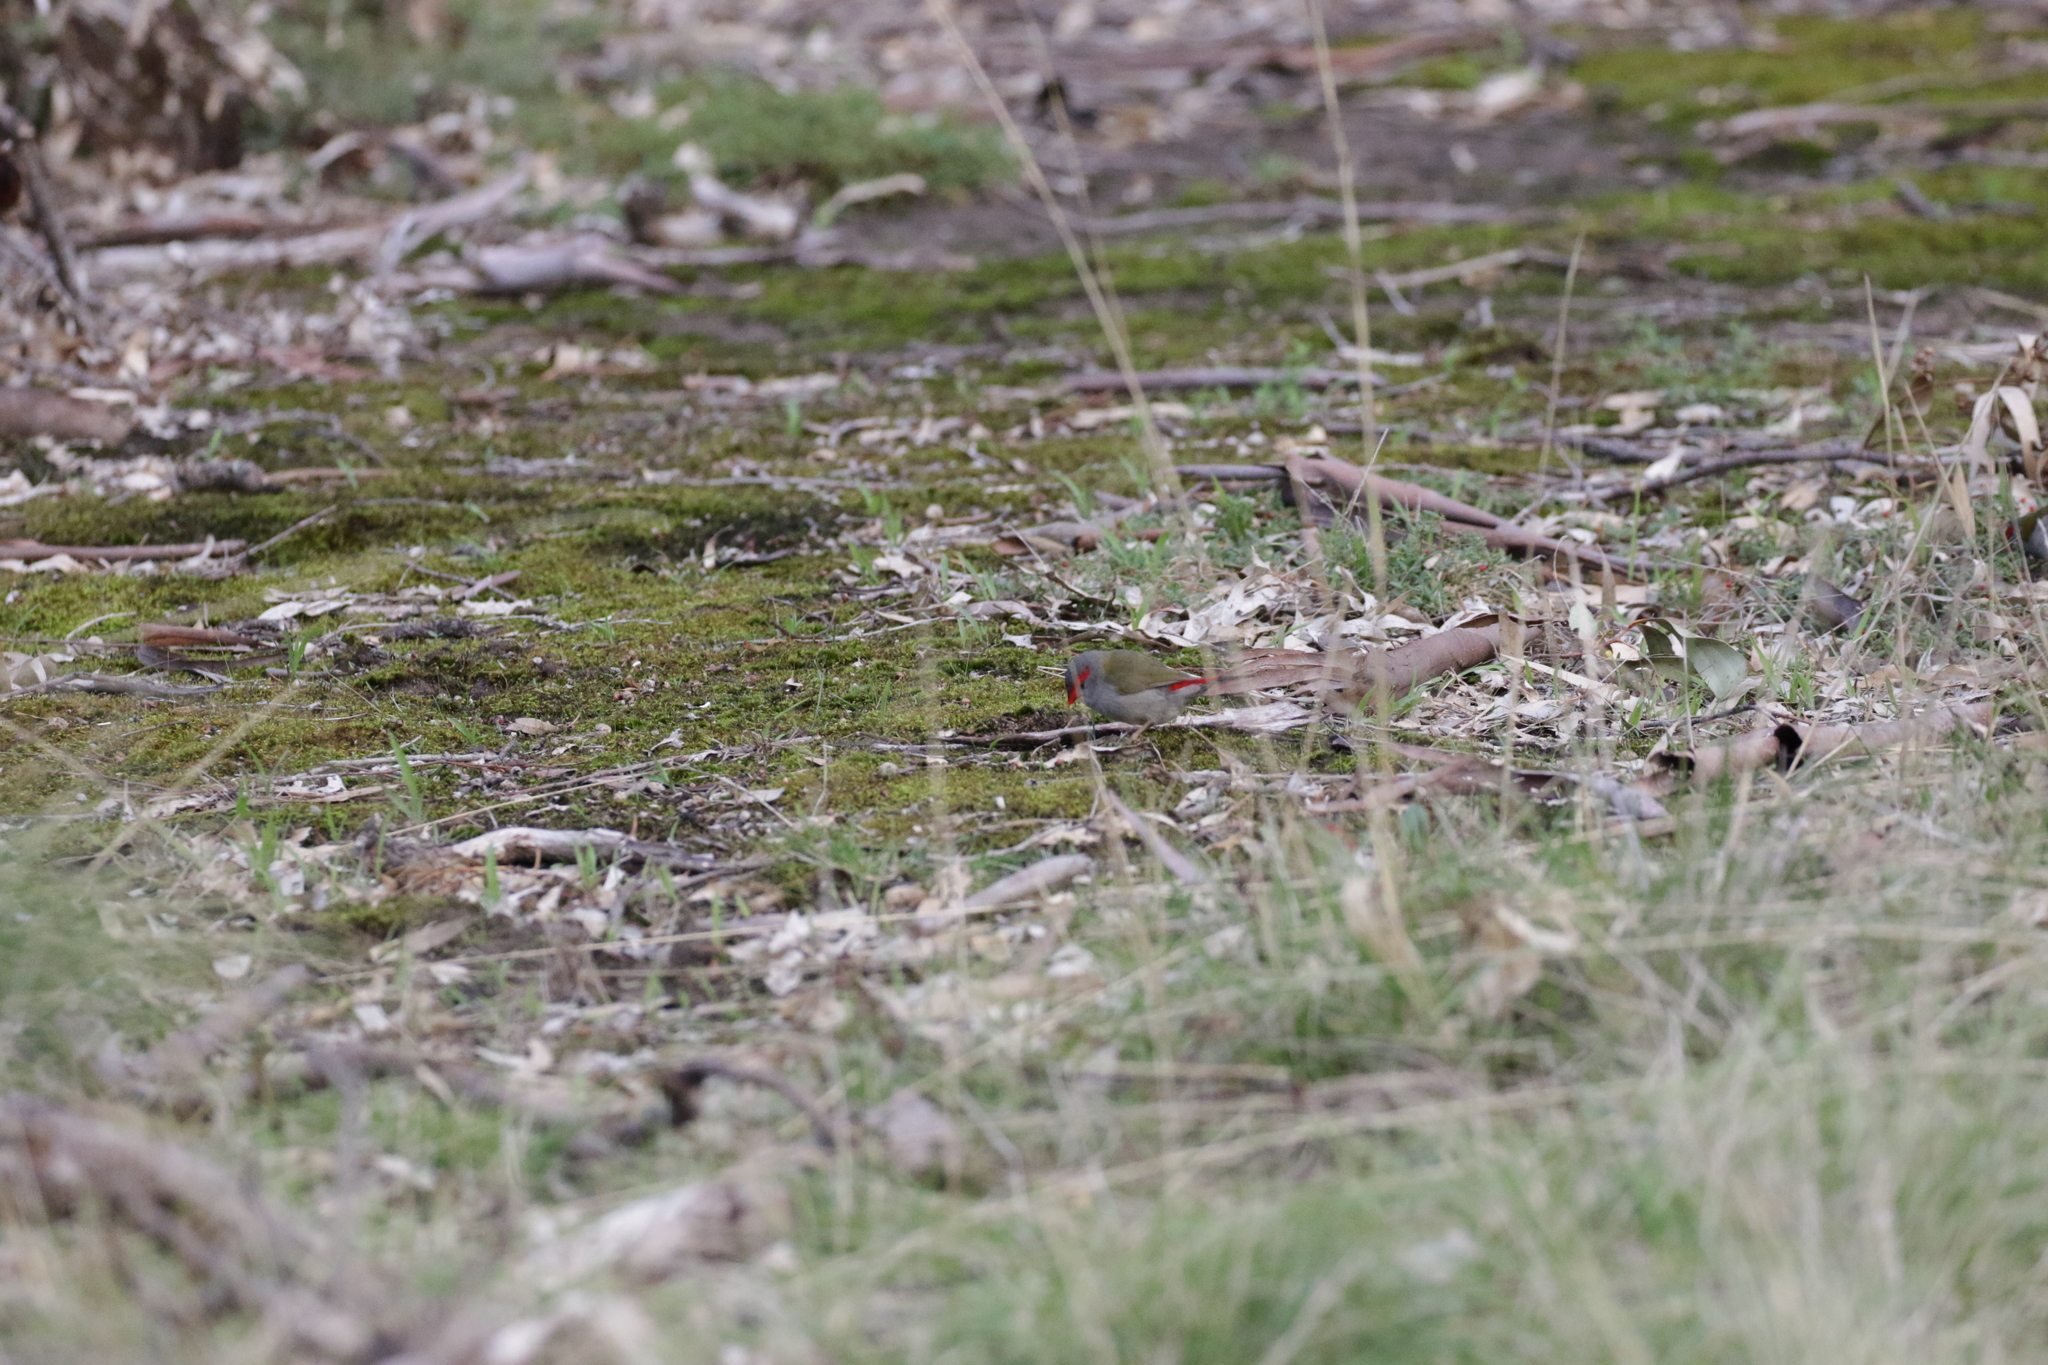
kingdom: Animalia
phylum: Chordata
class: Aves
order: Passeriformes
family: Estrildidae
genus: Neochmia
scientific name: Neochmia temporalis
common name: Red-browed finch
